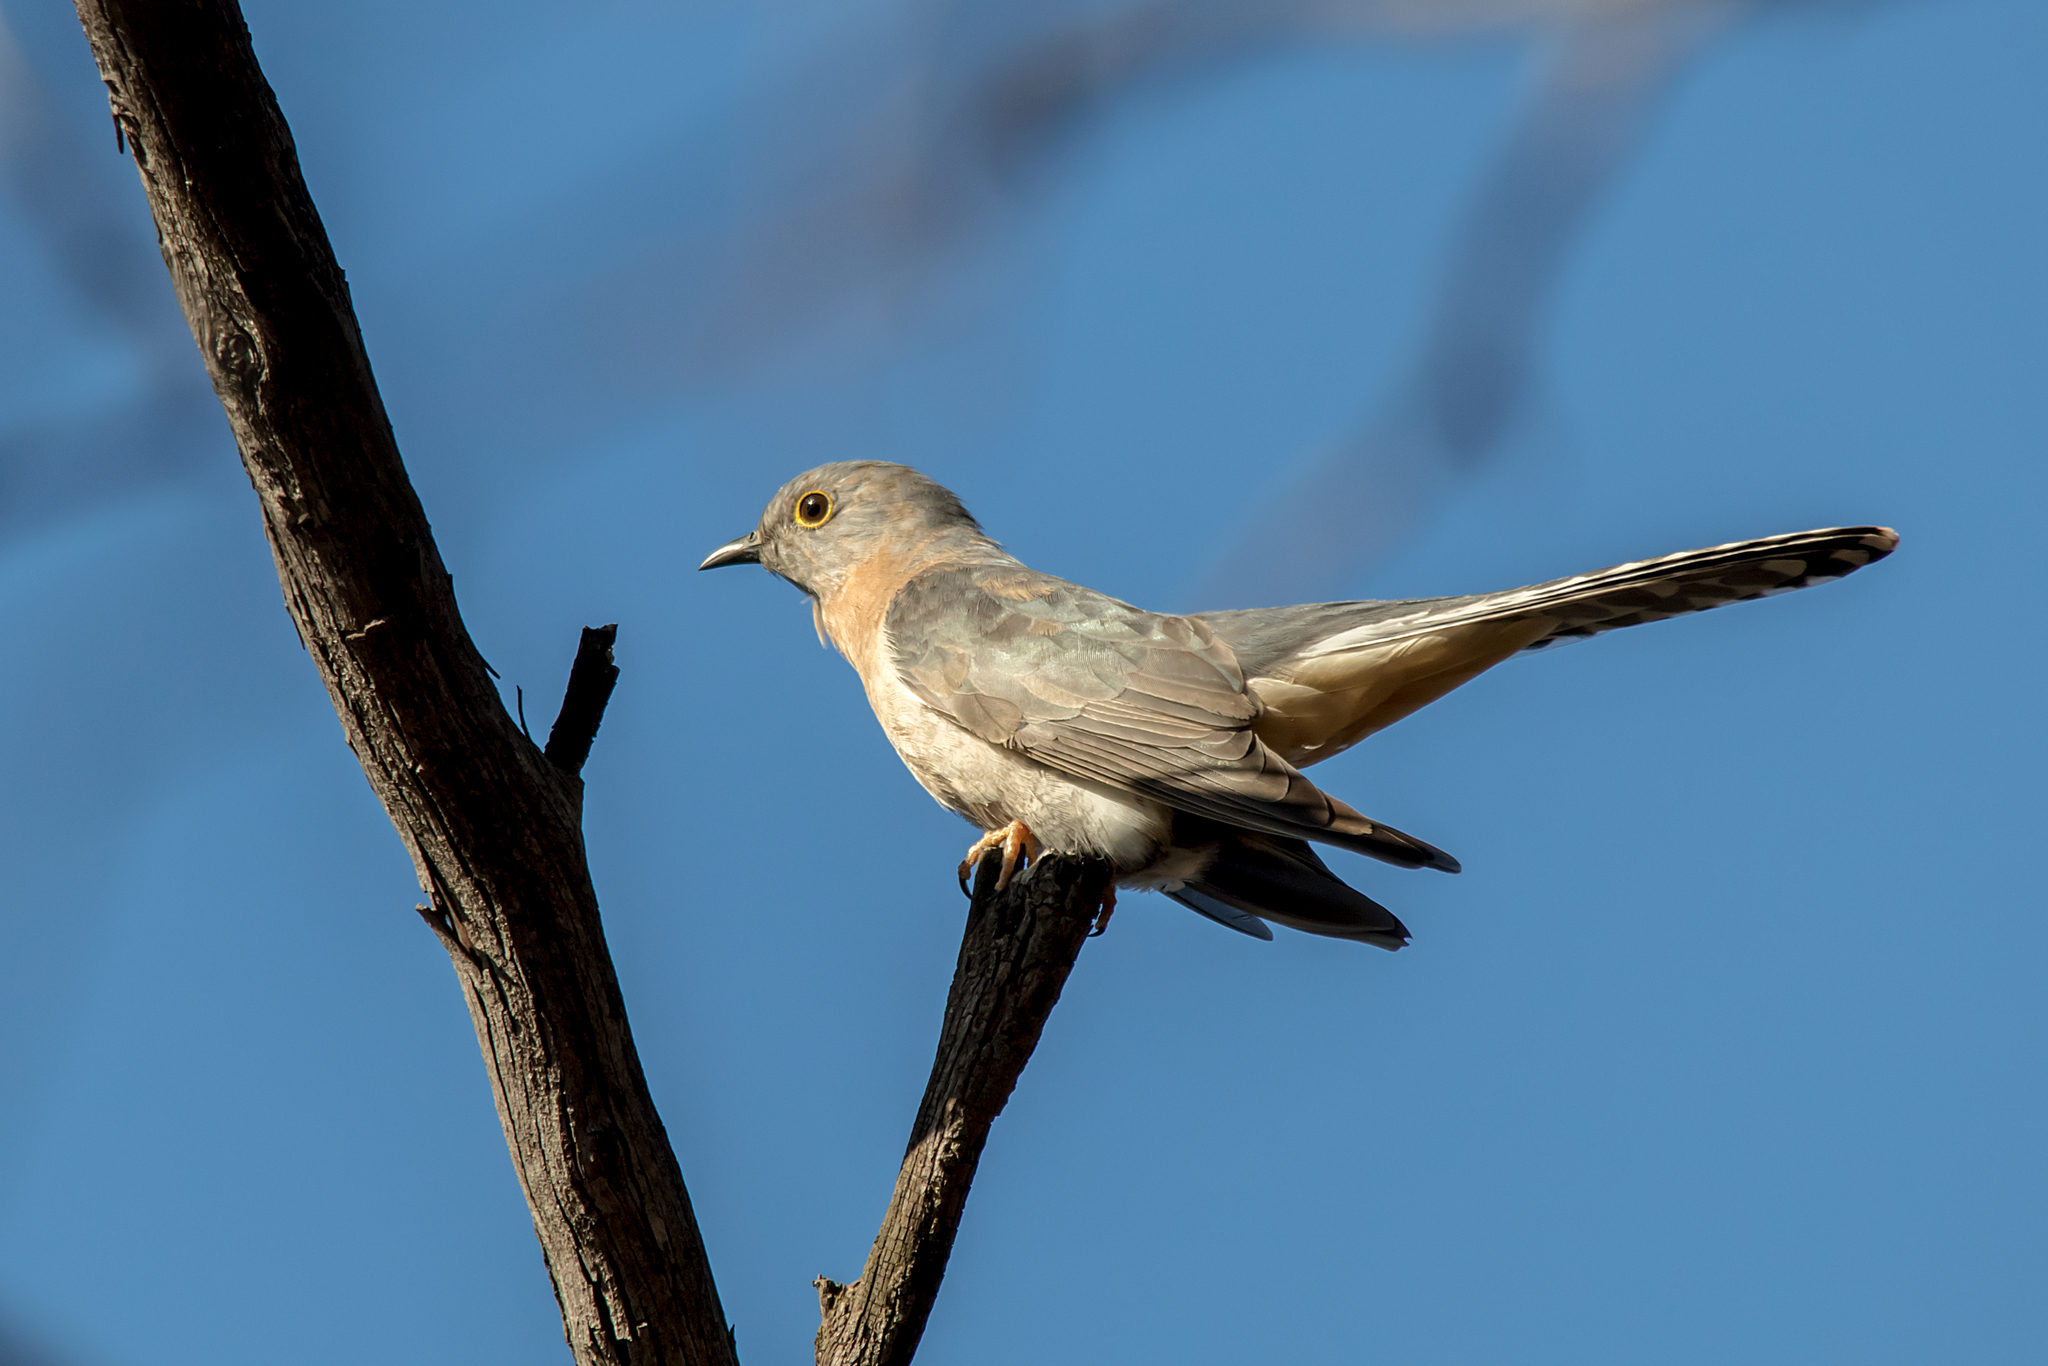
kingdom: Animalia
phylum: Chordata
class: Aves
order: Cuculiformes
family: Cuculidae
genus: Cacomantis
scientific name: Cacomantis flabelliformis
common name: Fan-tailed cuckoo
